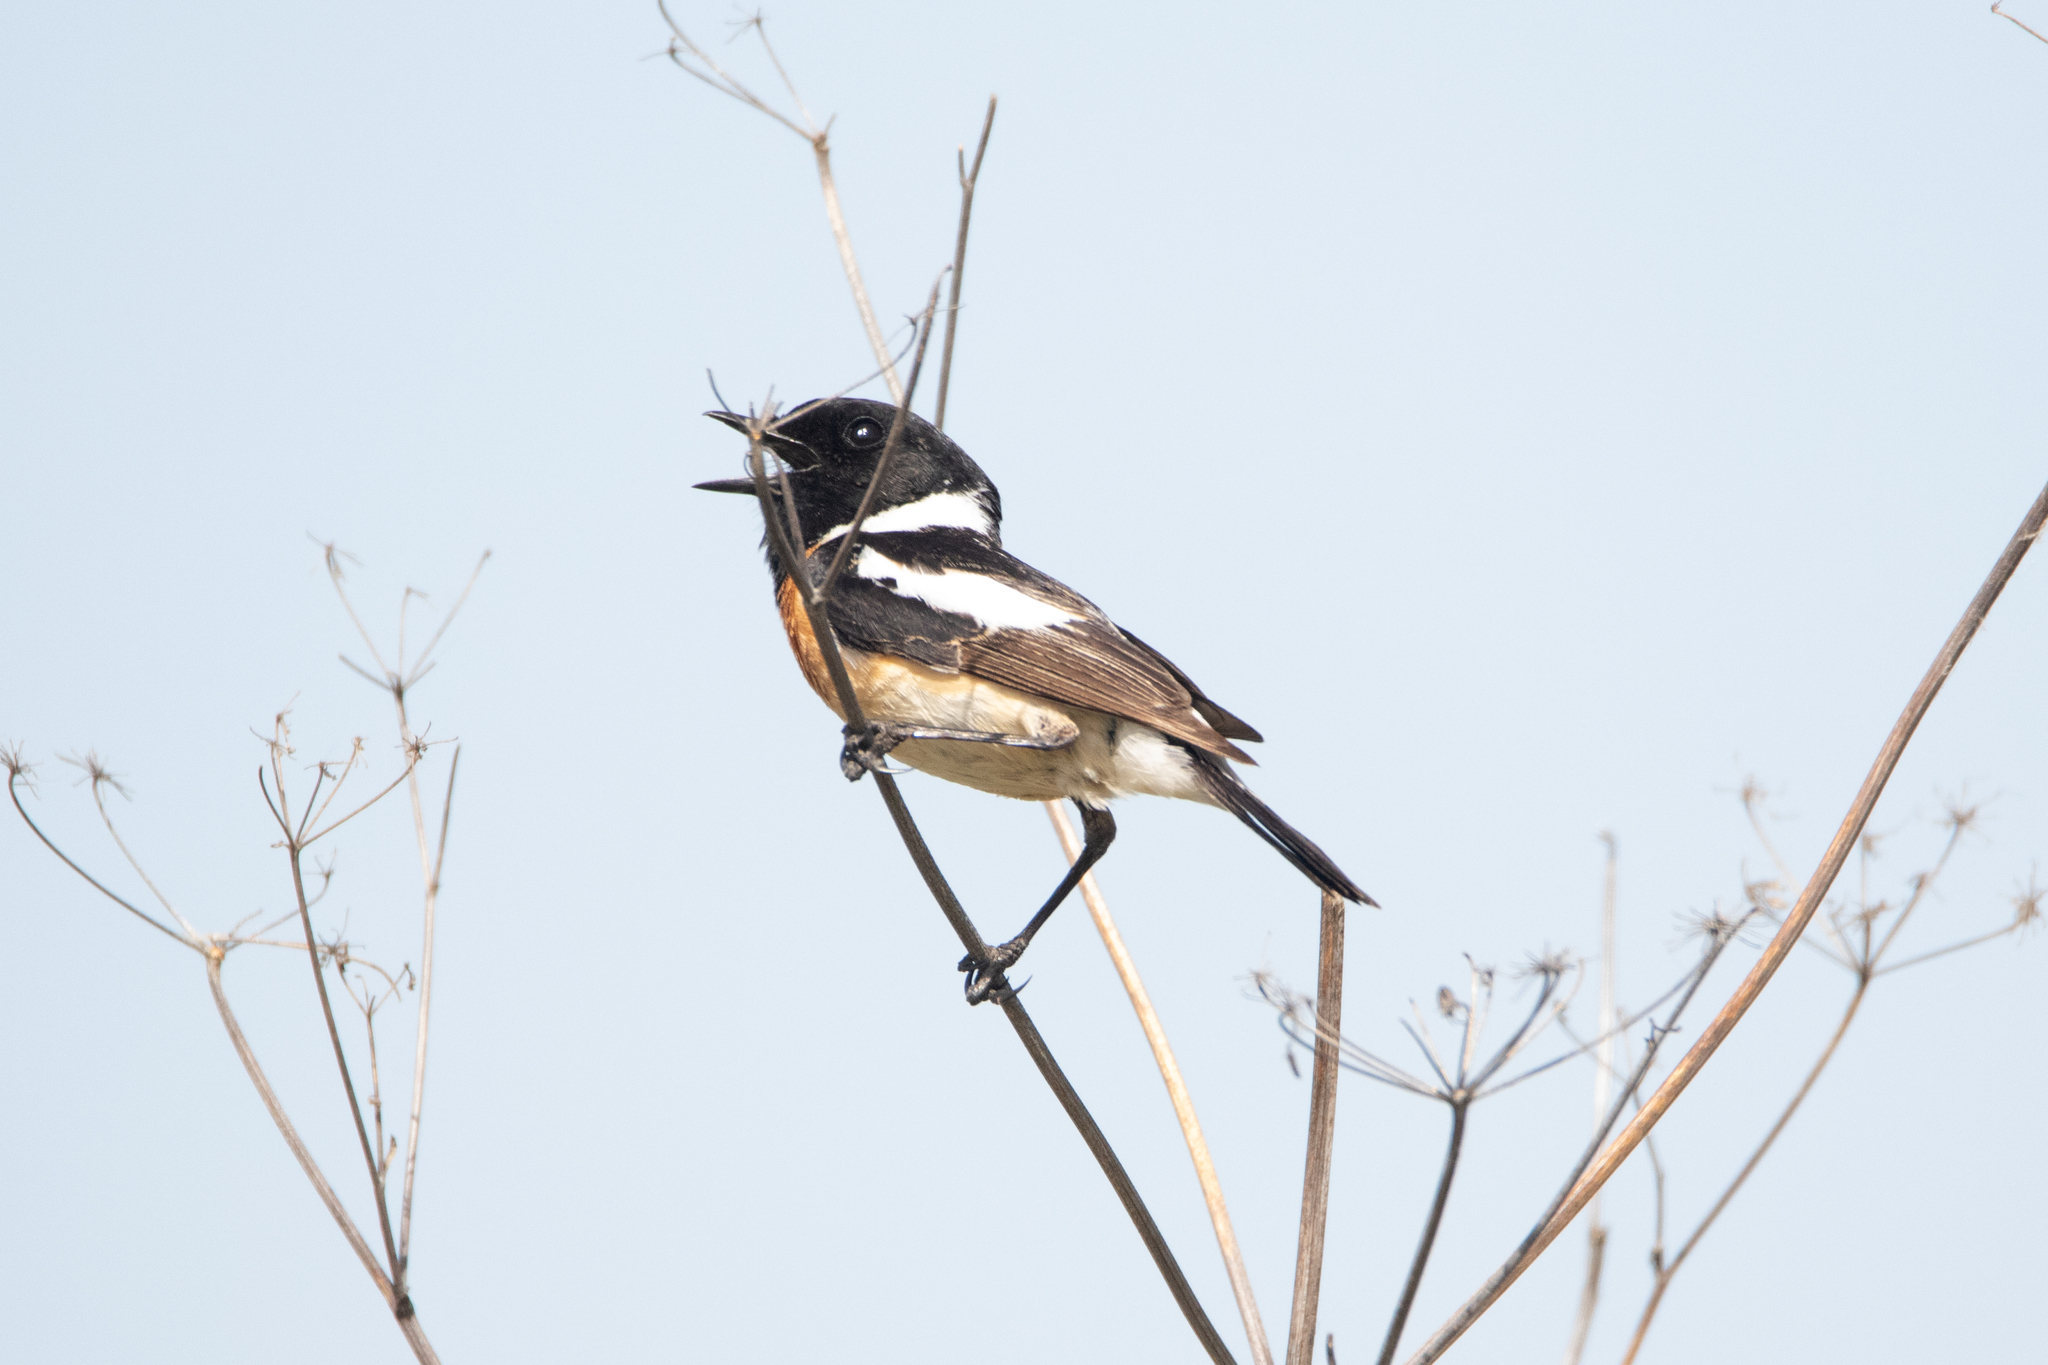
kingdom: Animalia
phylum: Chordata
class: Aves
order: Passeriformes
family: Muscicapidae
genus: Saxicola
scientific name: Saxicola maurus
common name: Siberian stonechat
